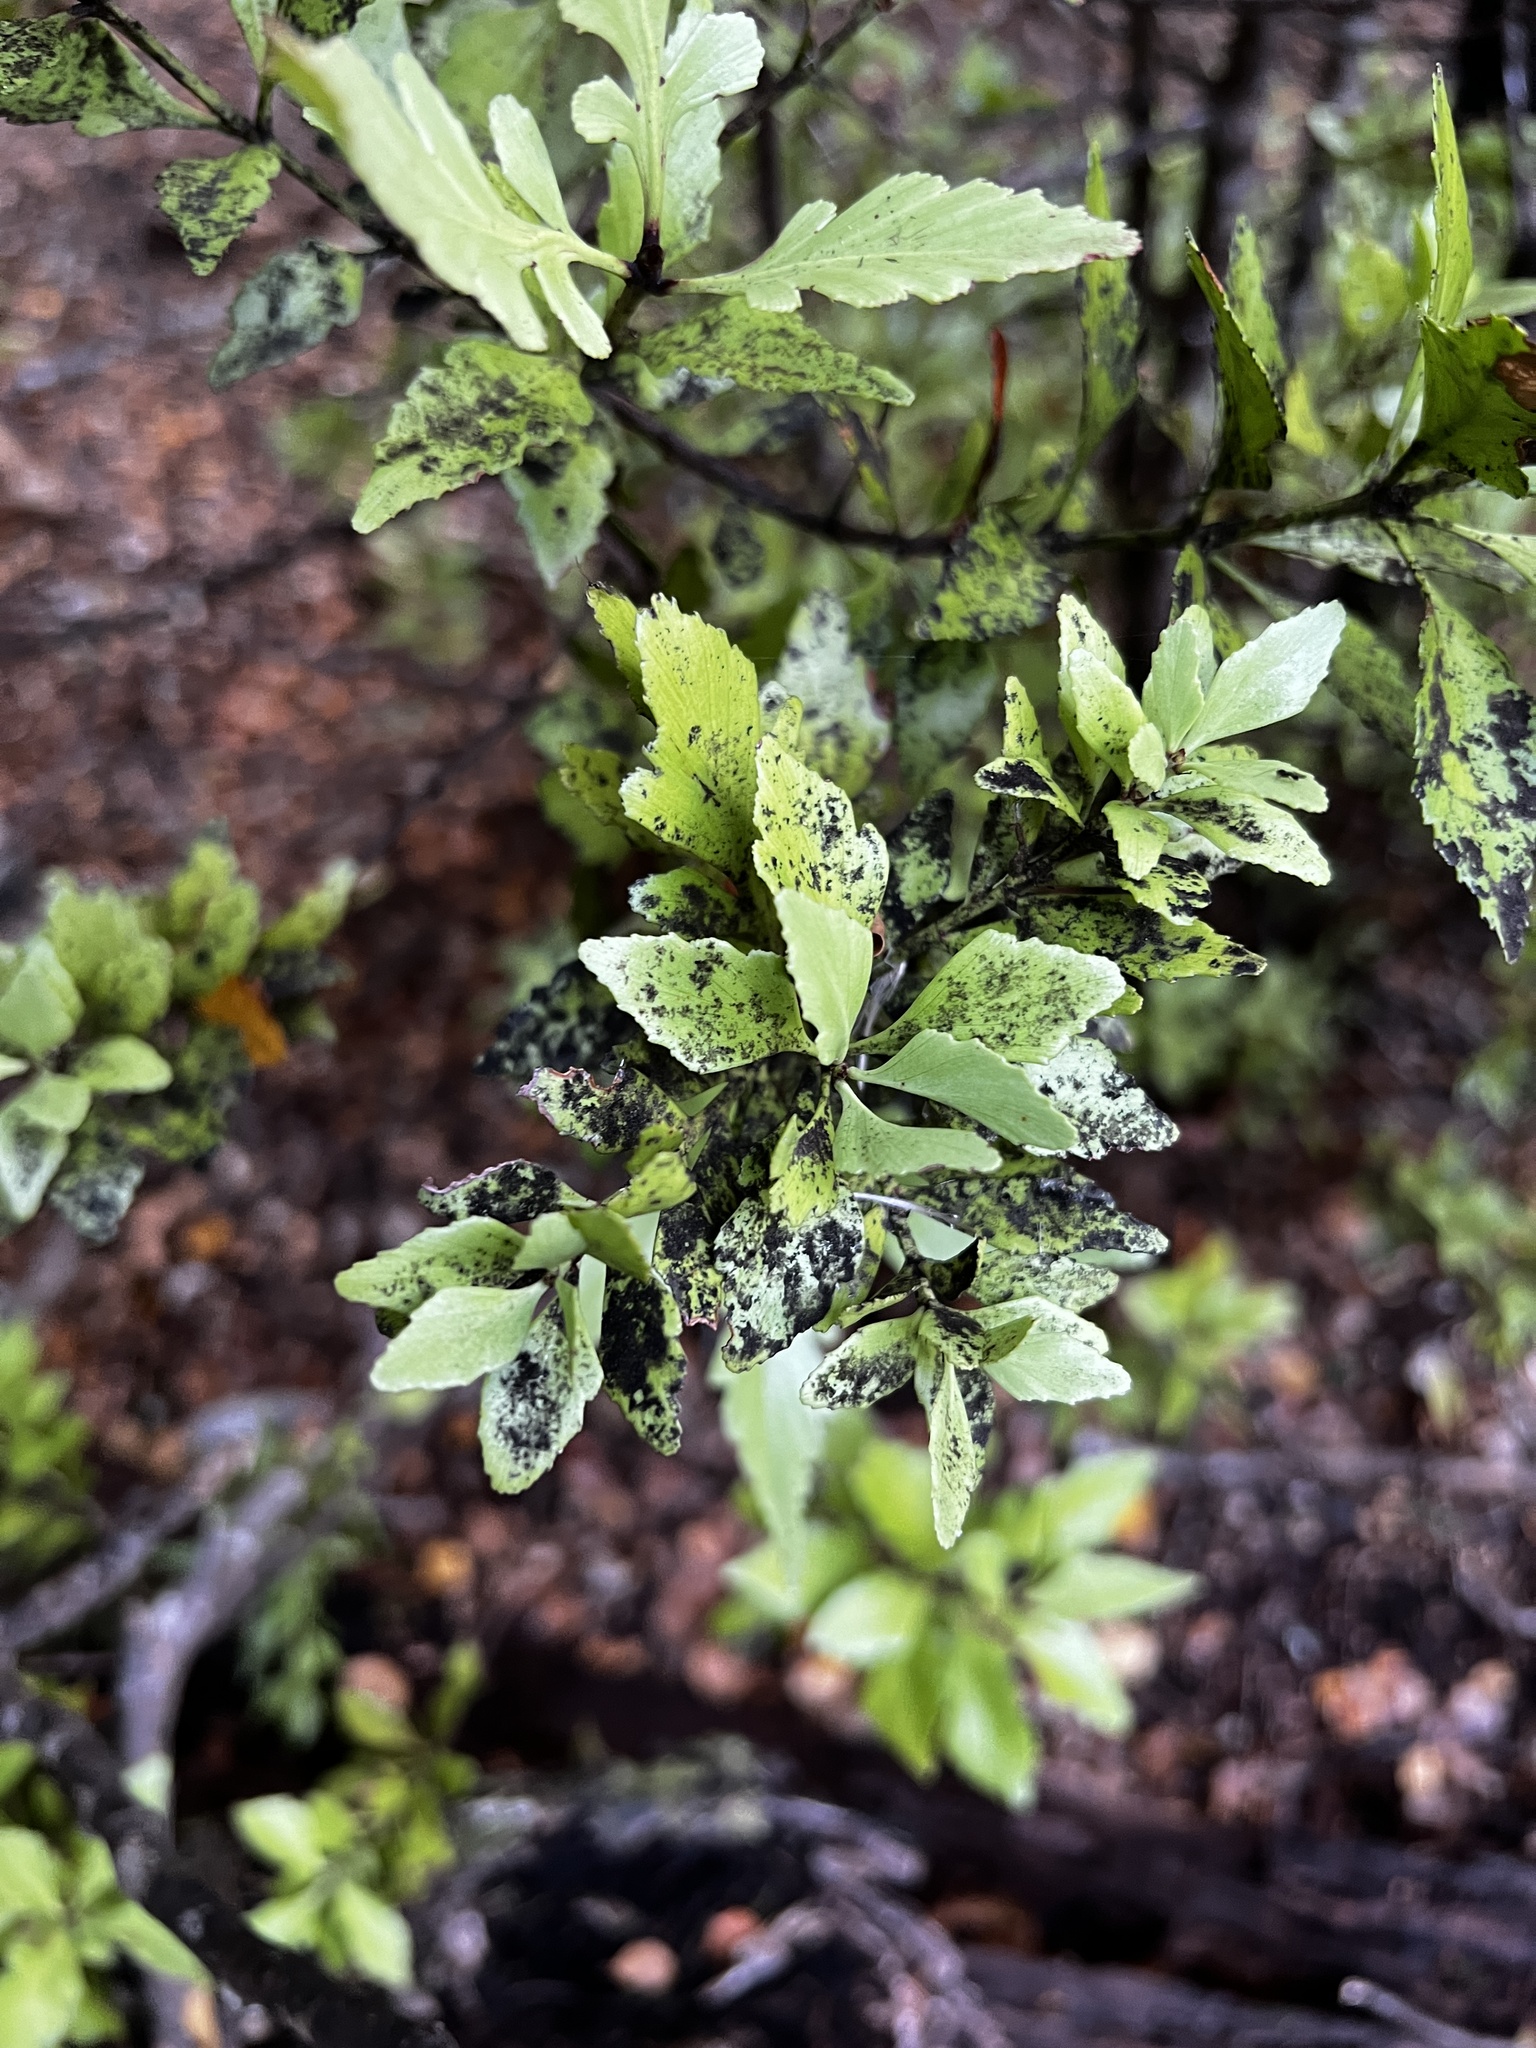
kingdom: Plantae
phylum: Tracheophyta
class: Pinopsida
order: Pinales
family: Phyllocladaceae
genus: Phyllocladus
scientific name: Phyllocladus trichomanoides
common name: Celery pine
